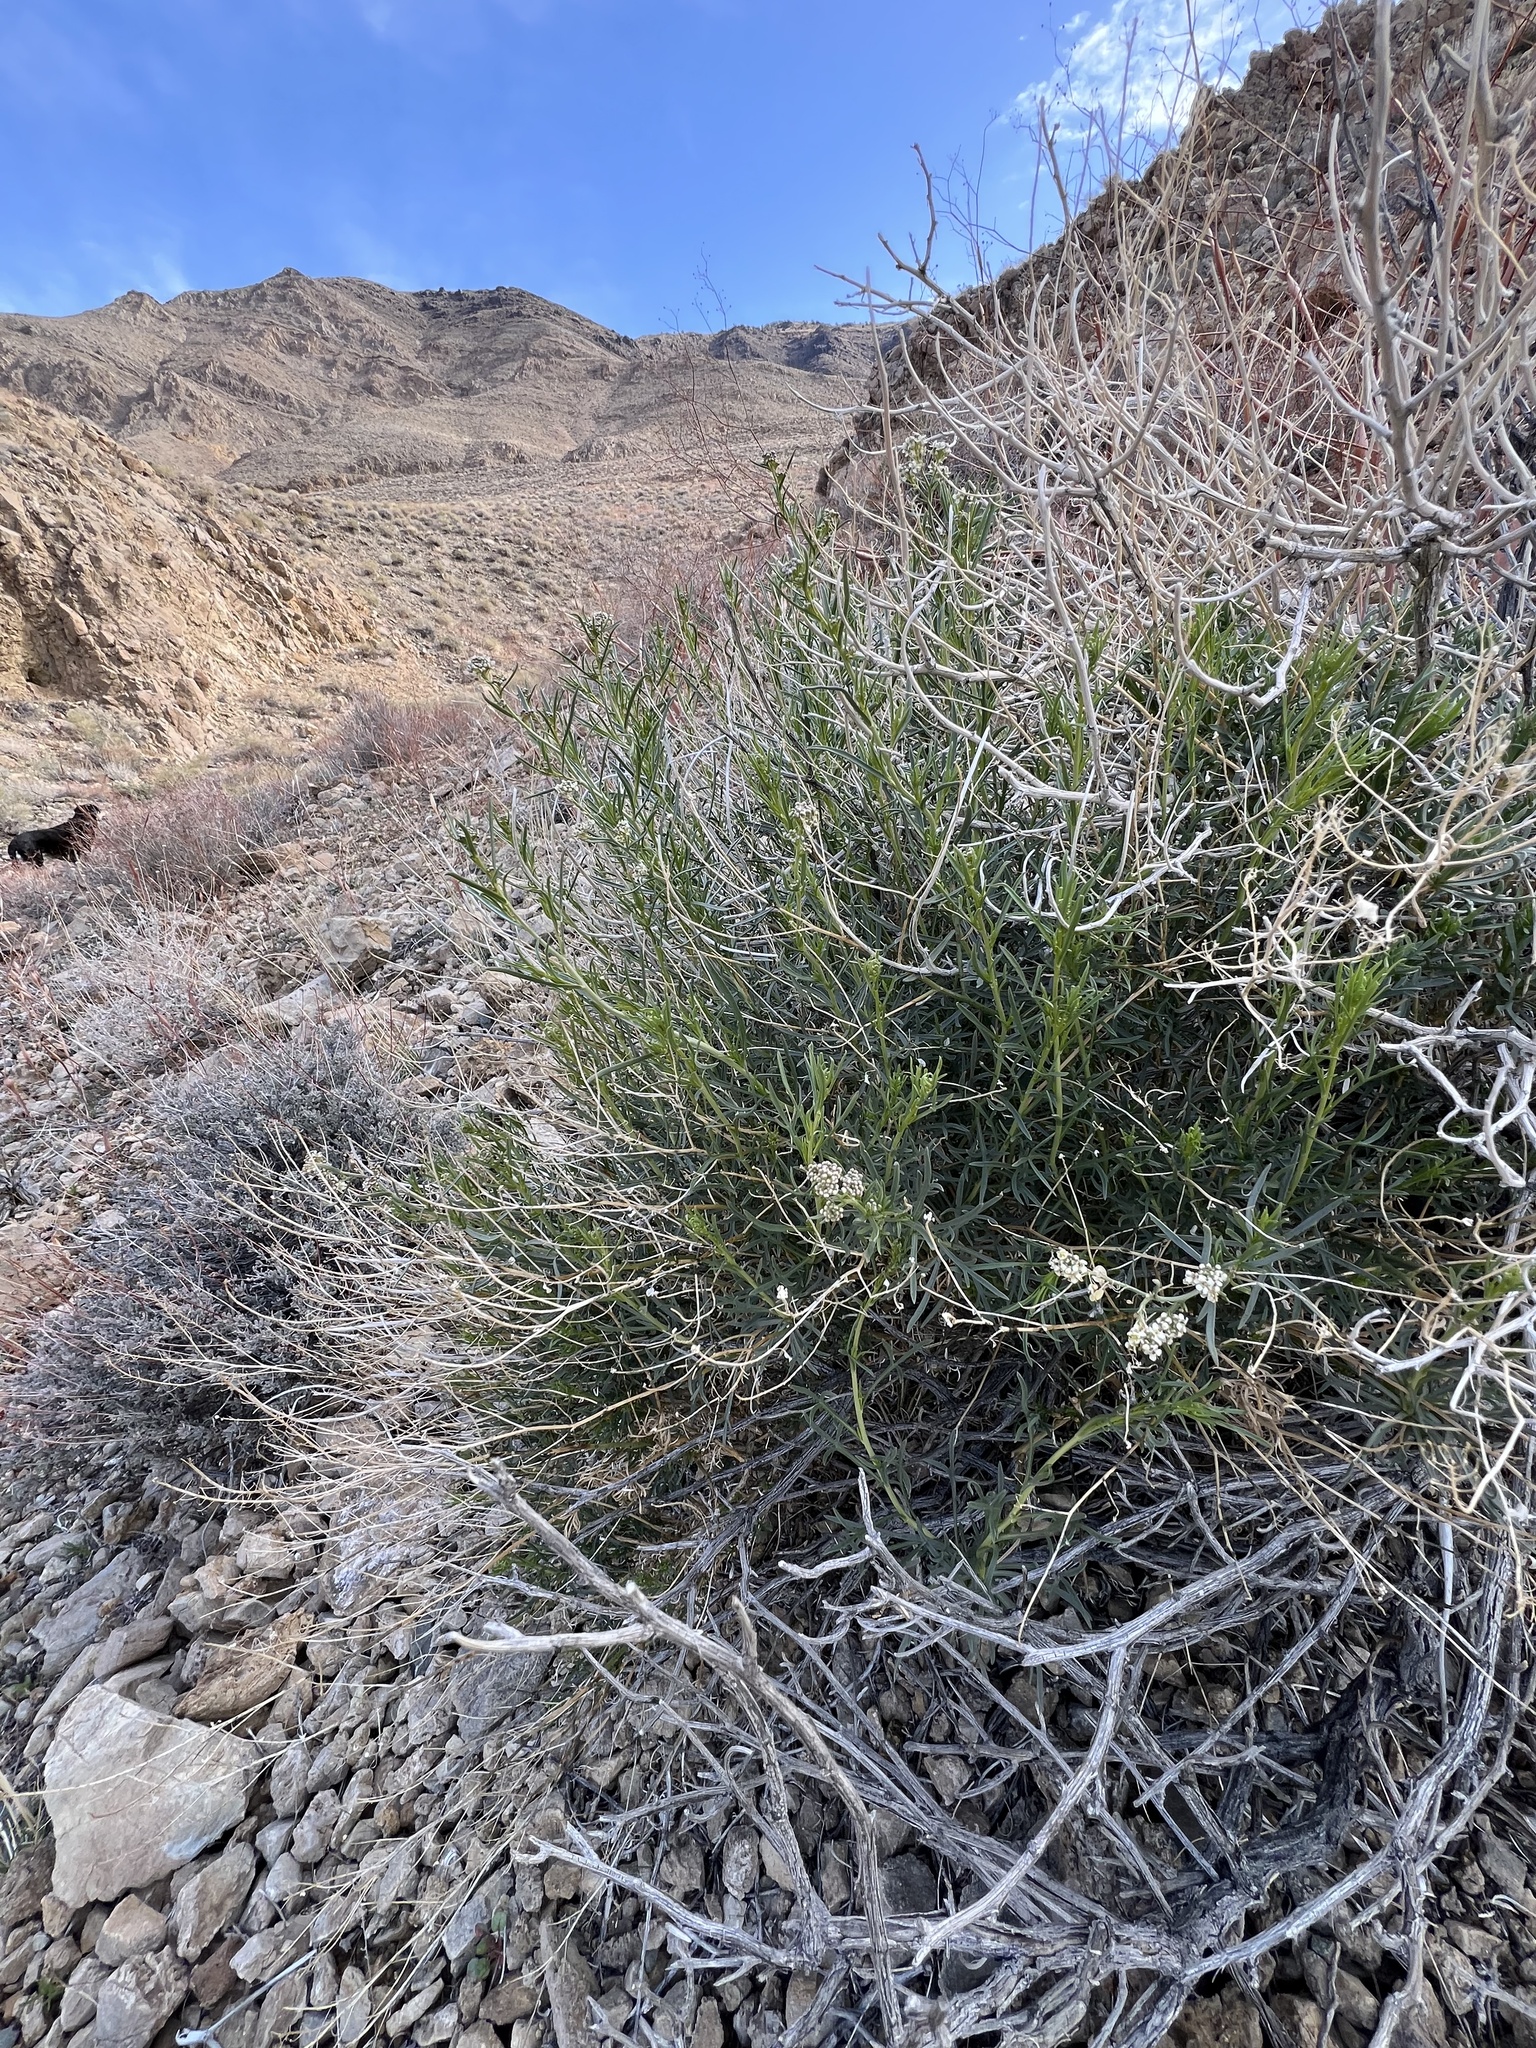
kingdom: Plantae
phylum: Tracheophyta
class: Magnoliopsida
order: Brassicales
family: Brassicaceae
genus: Lepidium
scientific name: Lepidium fremontii
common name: Fremont's pepperwort
